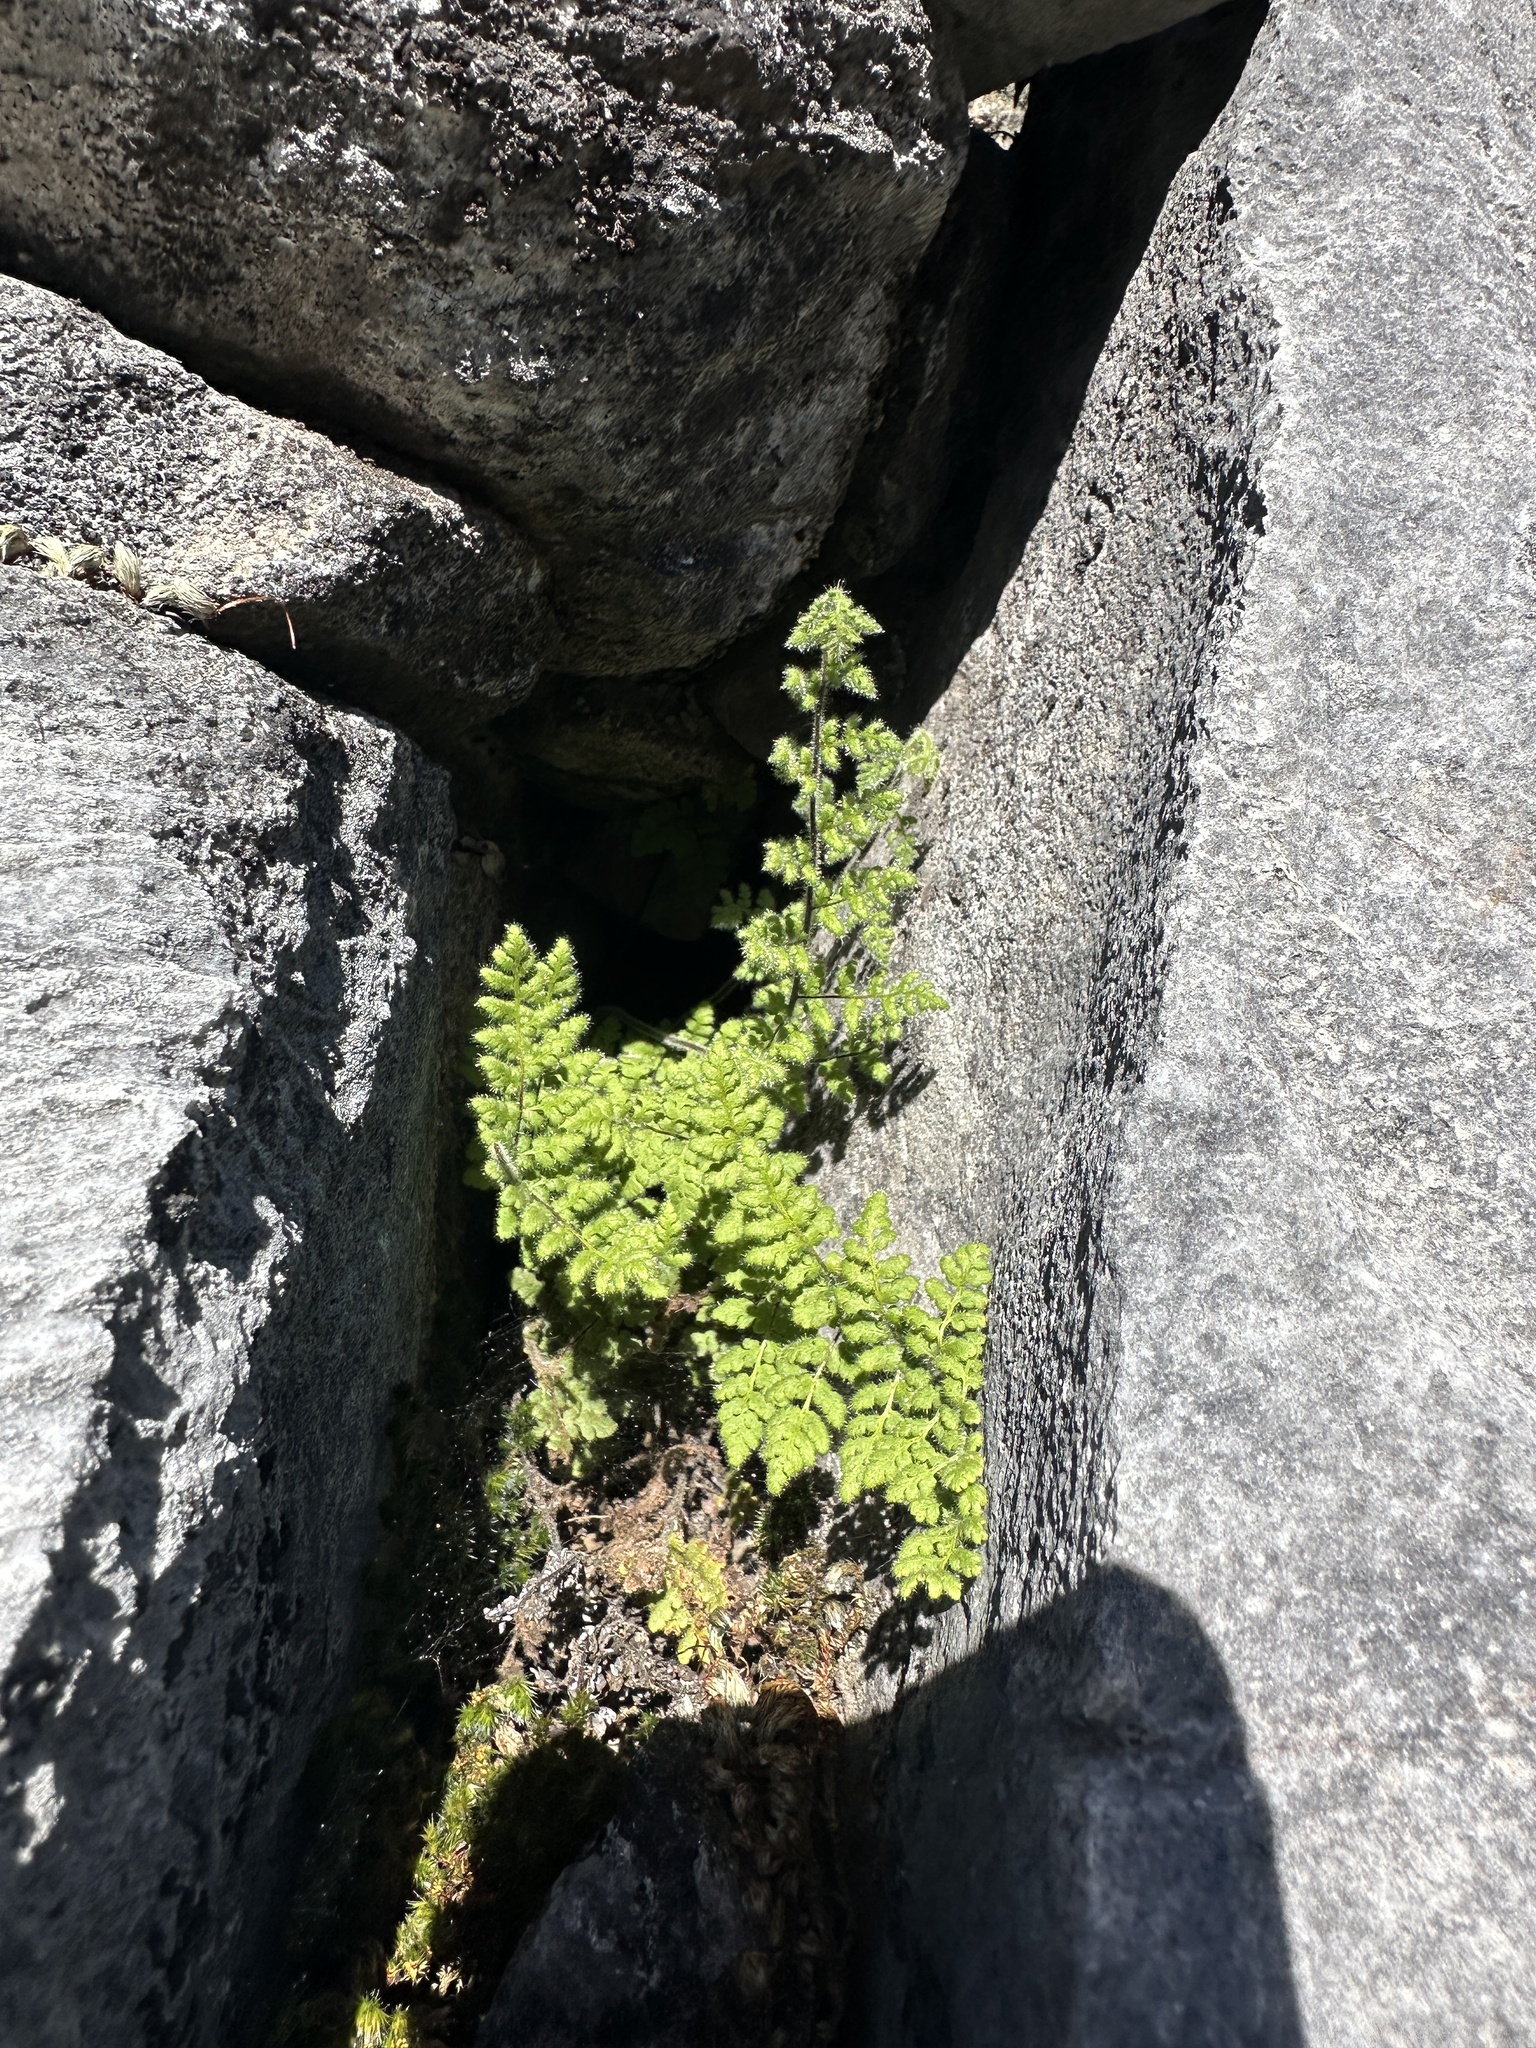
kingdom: Plantae
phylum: Tracheophyta
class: Polypodiopsida
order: Polypodiales
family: Pteridaceae
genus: Myriopteris
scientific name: Myriopteris cooperae
